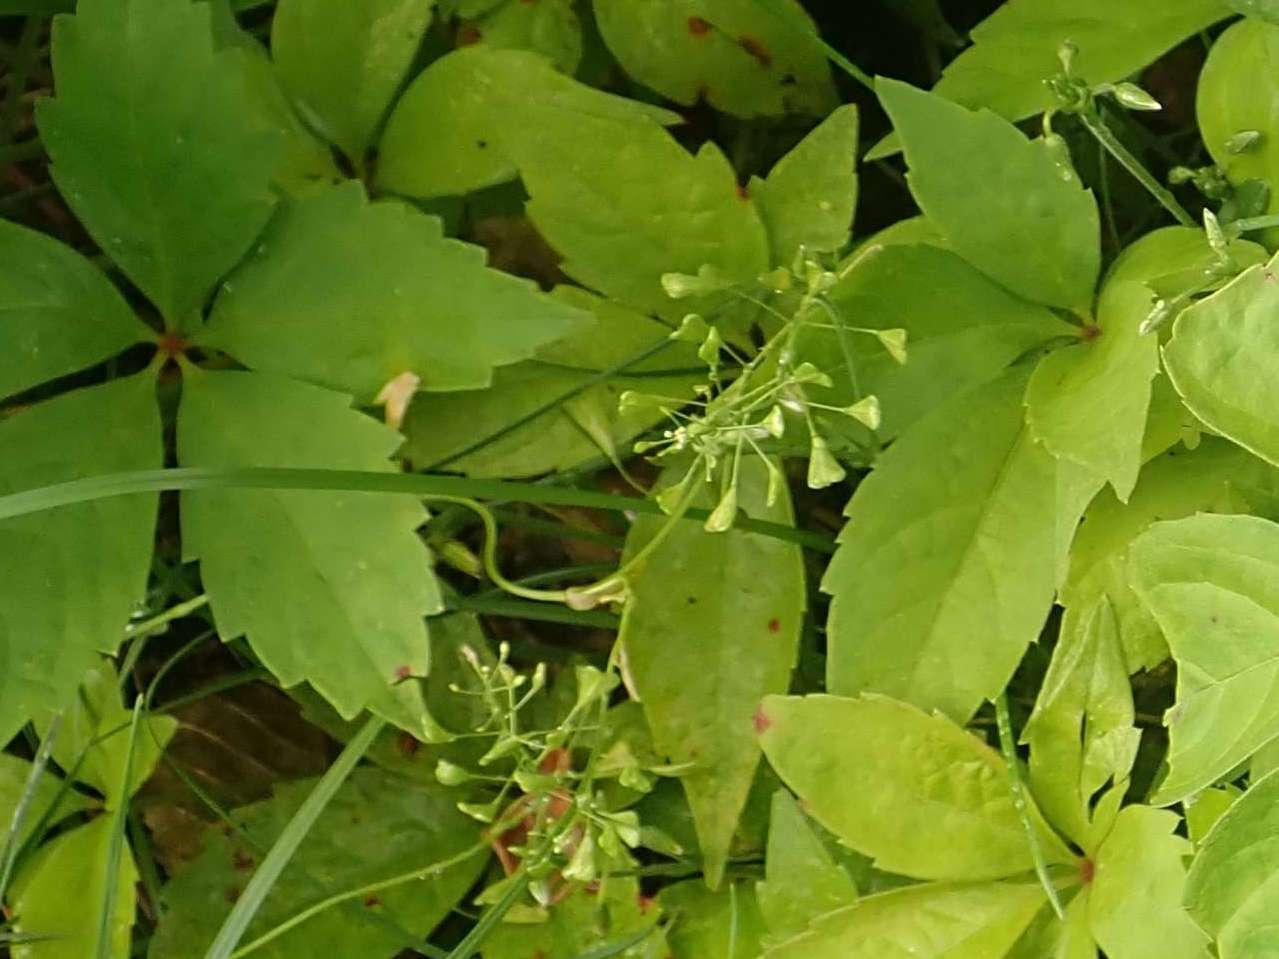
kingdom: Plantae
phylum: Tracheophyta
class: Magnoliopsida
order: Brassicales
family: Brassicaceae
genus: Capsella
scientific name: Capsella bursa-pastoris
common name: Shepherd's purse
